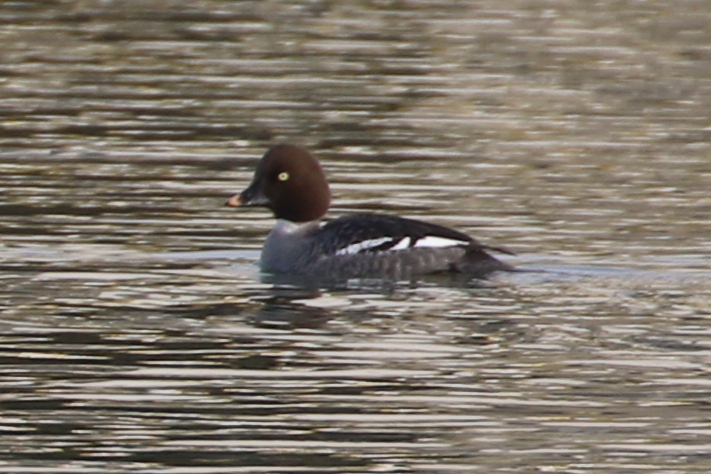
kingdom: Animalia
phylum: Chordata
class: Aves
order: Anseriformes
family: Anatidae
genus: Bucephala
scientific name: Bucephala clangula
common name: Common goldeneye
